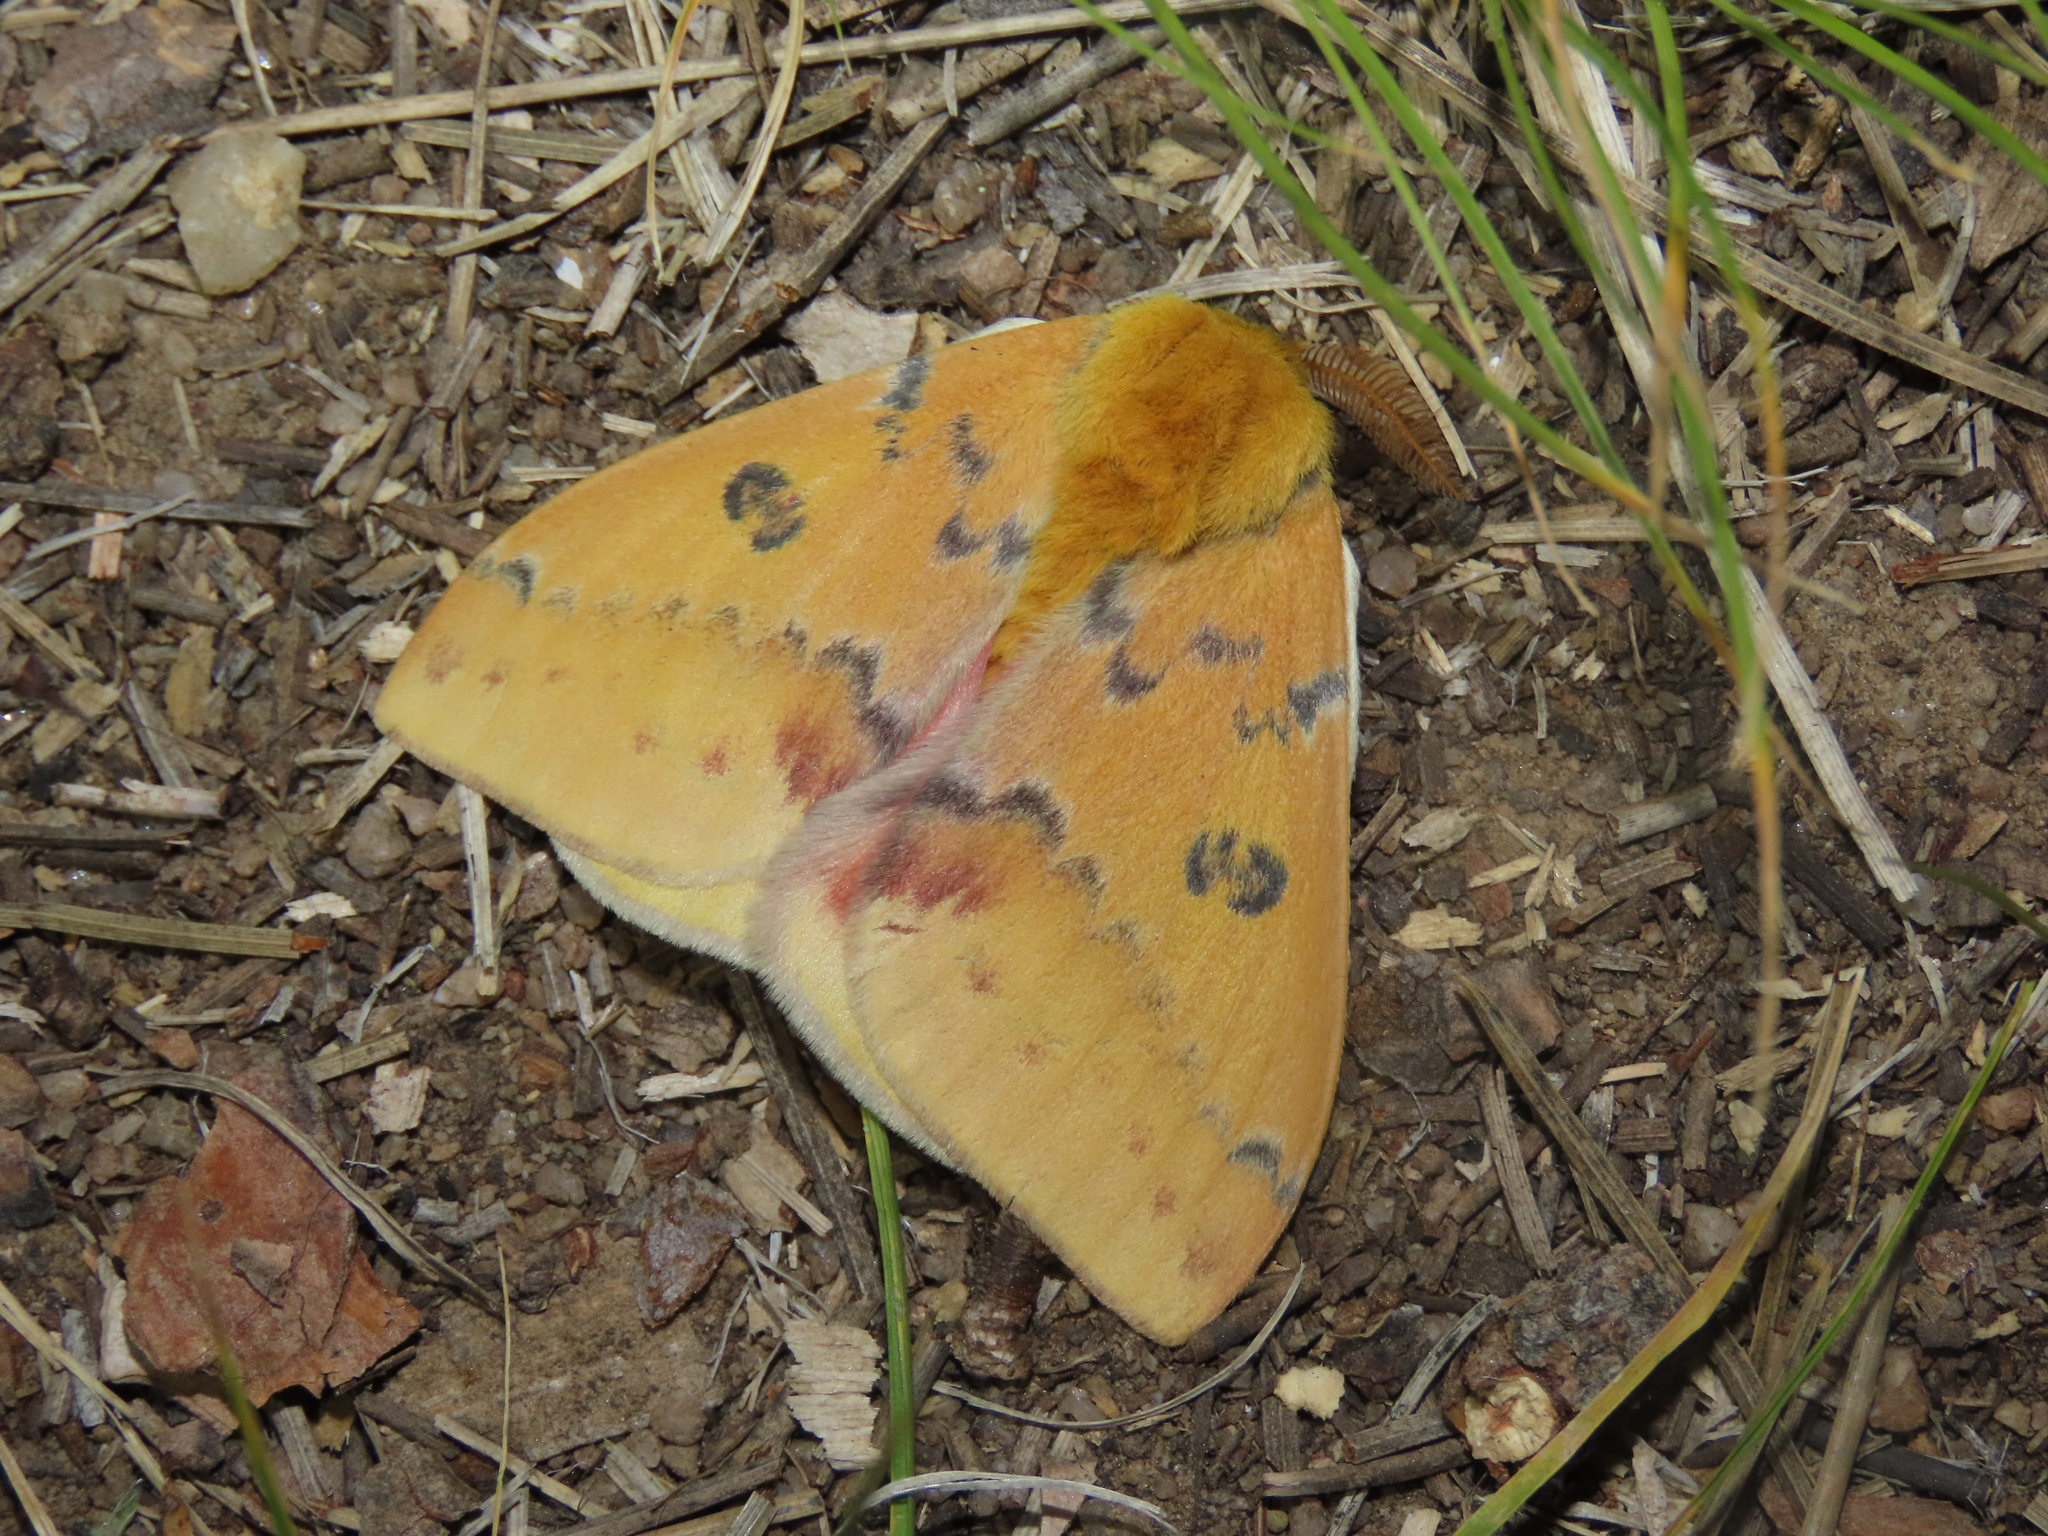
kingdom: Animalia
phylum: Arthropoda
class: Insecta
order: Lepidoptera
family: Saturniidae
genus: Automeris
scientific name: Automeris io
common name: Io moth
